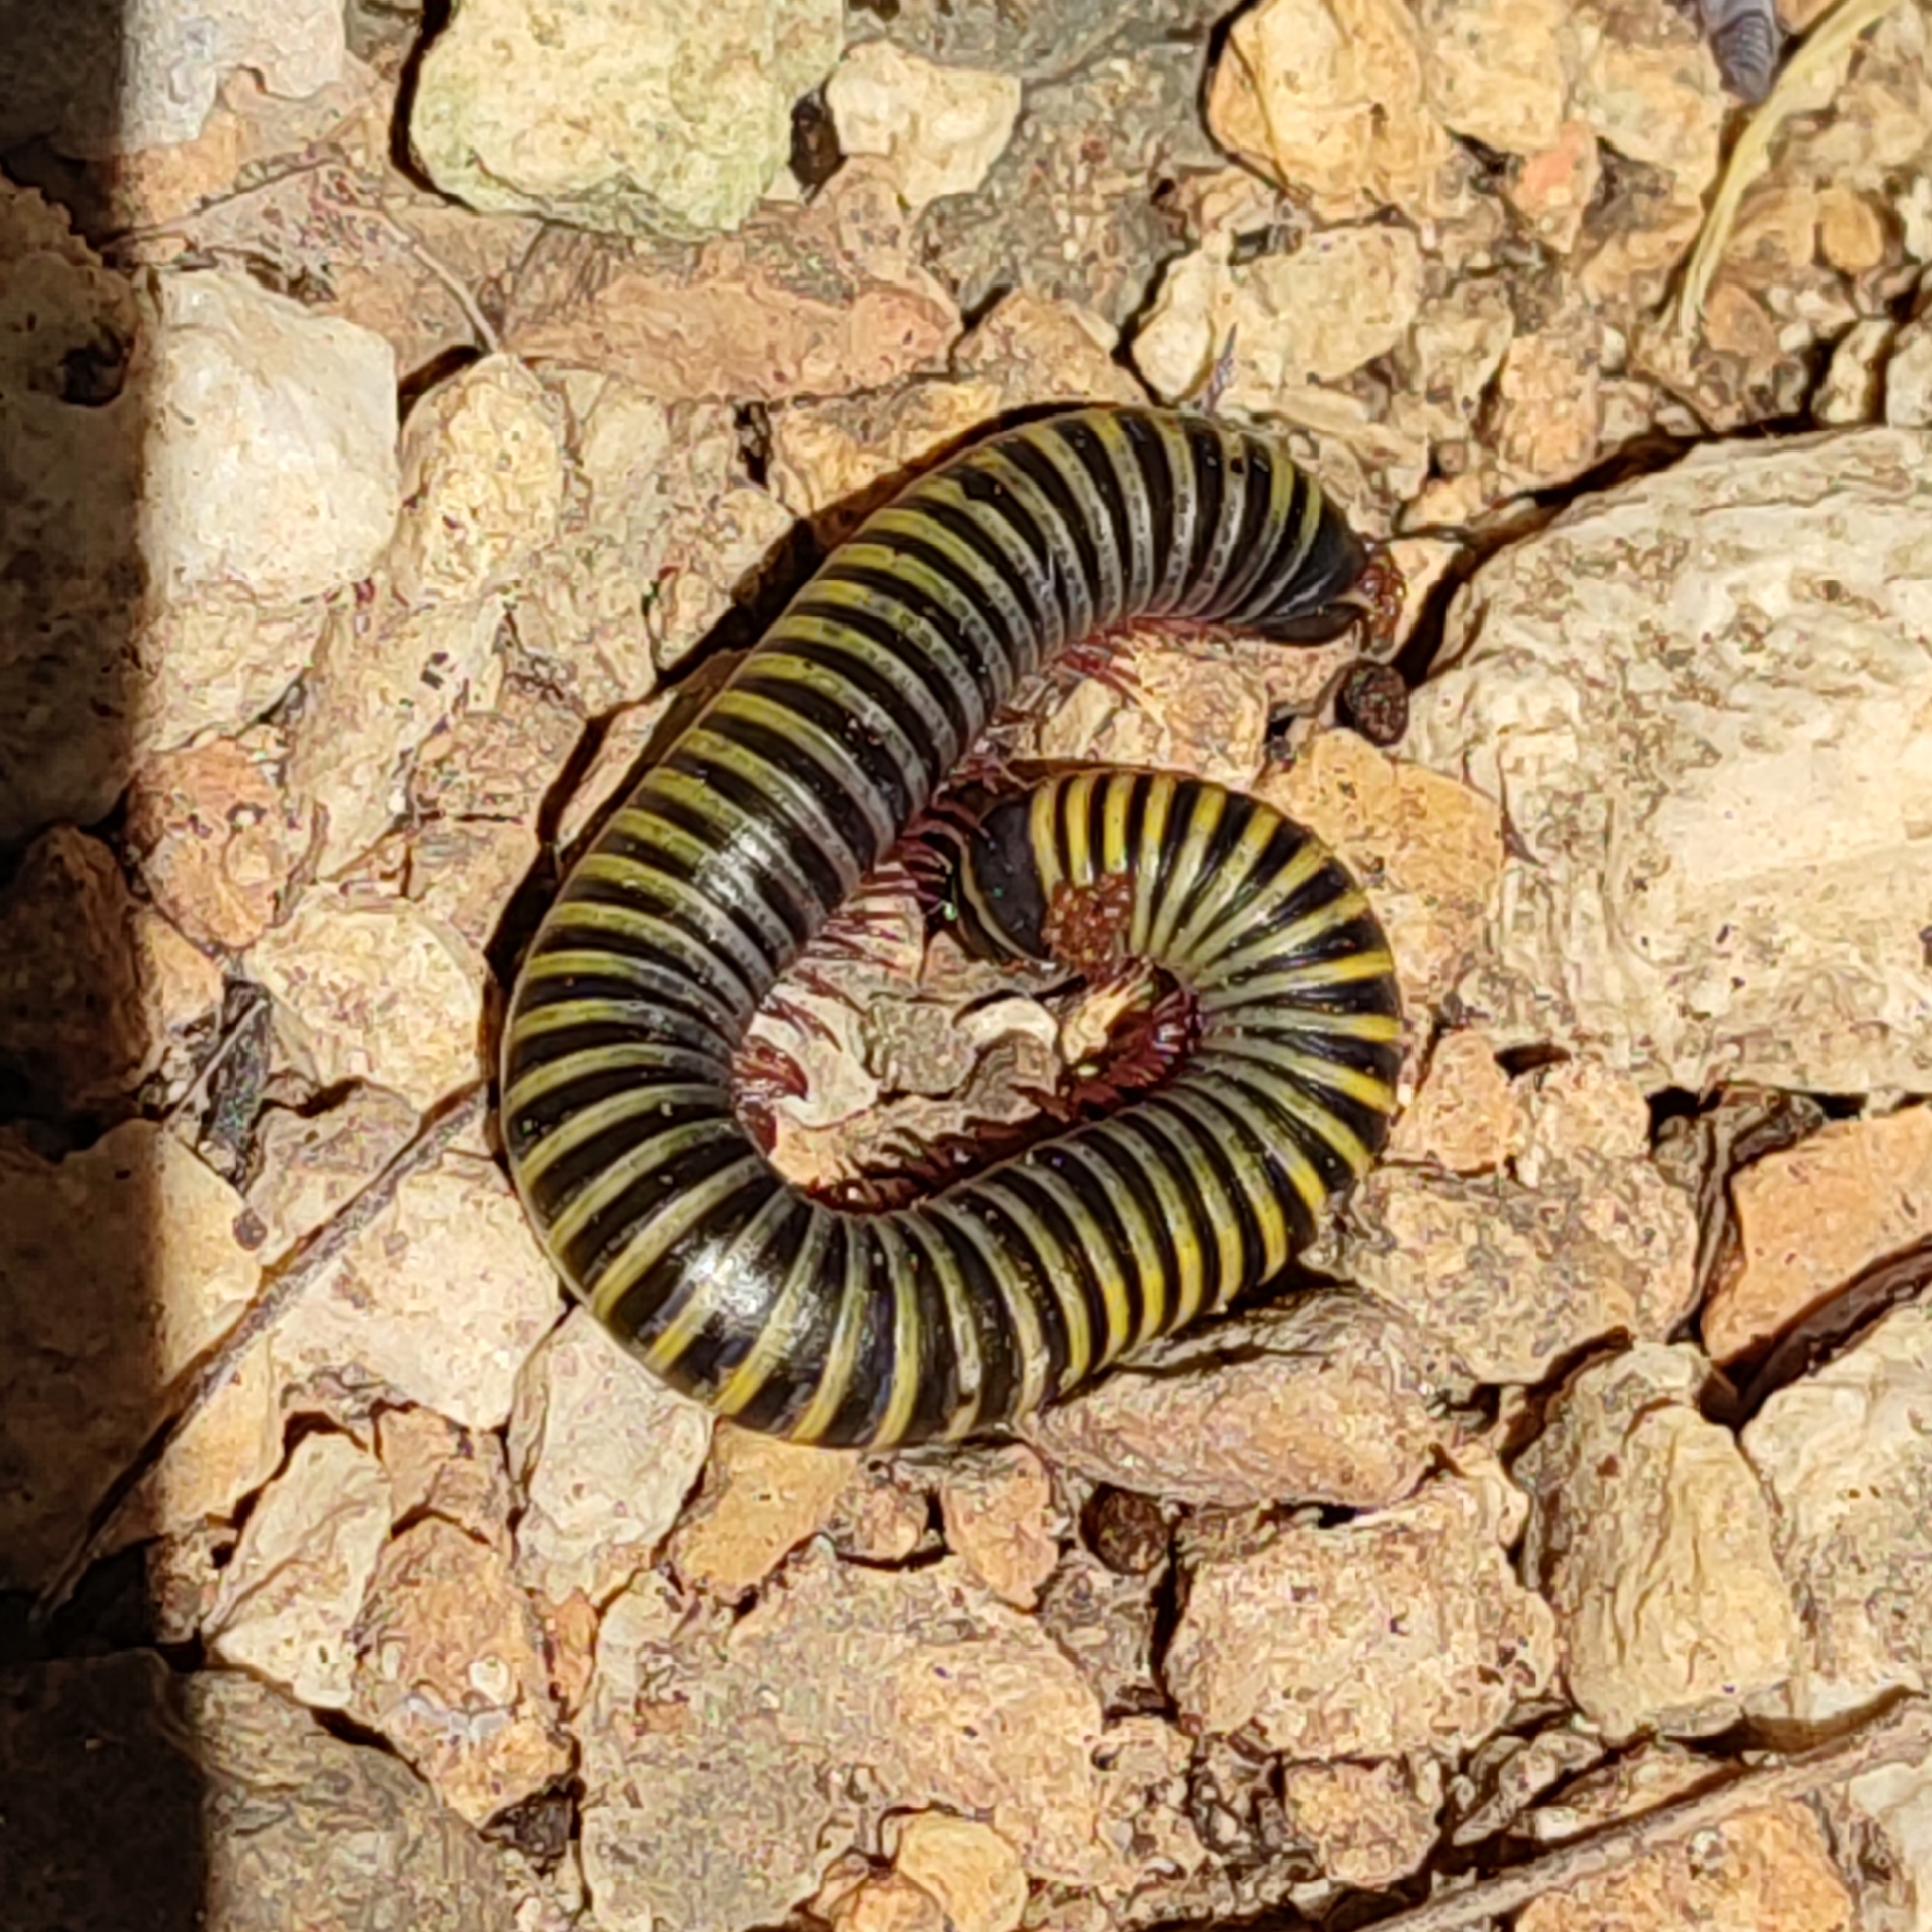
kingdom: Animalia
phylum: Arthropoda
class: Diplopoda
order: Spirobolida
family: Rhinocricidae
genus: Anadenobolus
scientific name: Anadenobolus monilicornis
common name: Caribbean millipede
